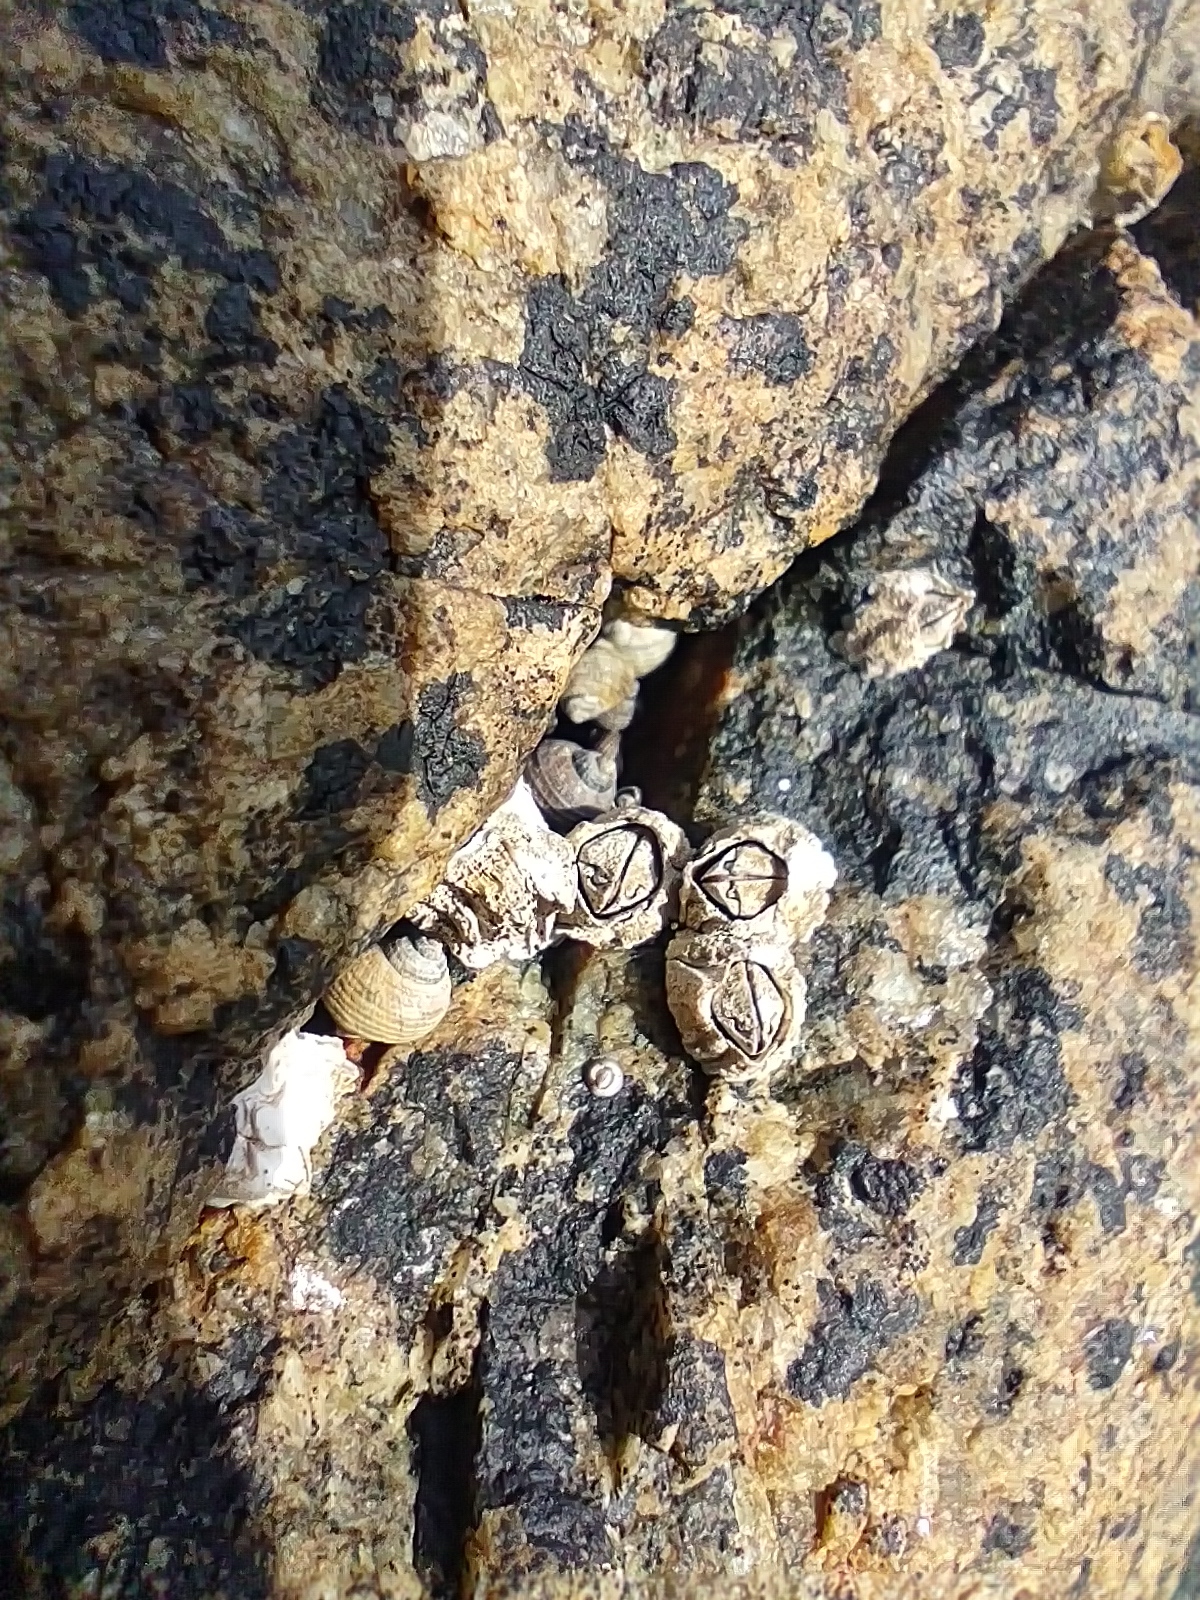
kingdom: Animalia
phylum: Arthropoda
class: Maxillopoda
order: Sessilia
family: Archaeobalanidae
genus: Semibalanus
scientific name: Semibalanus balanoides
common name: Acorn barnacle
